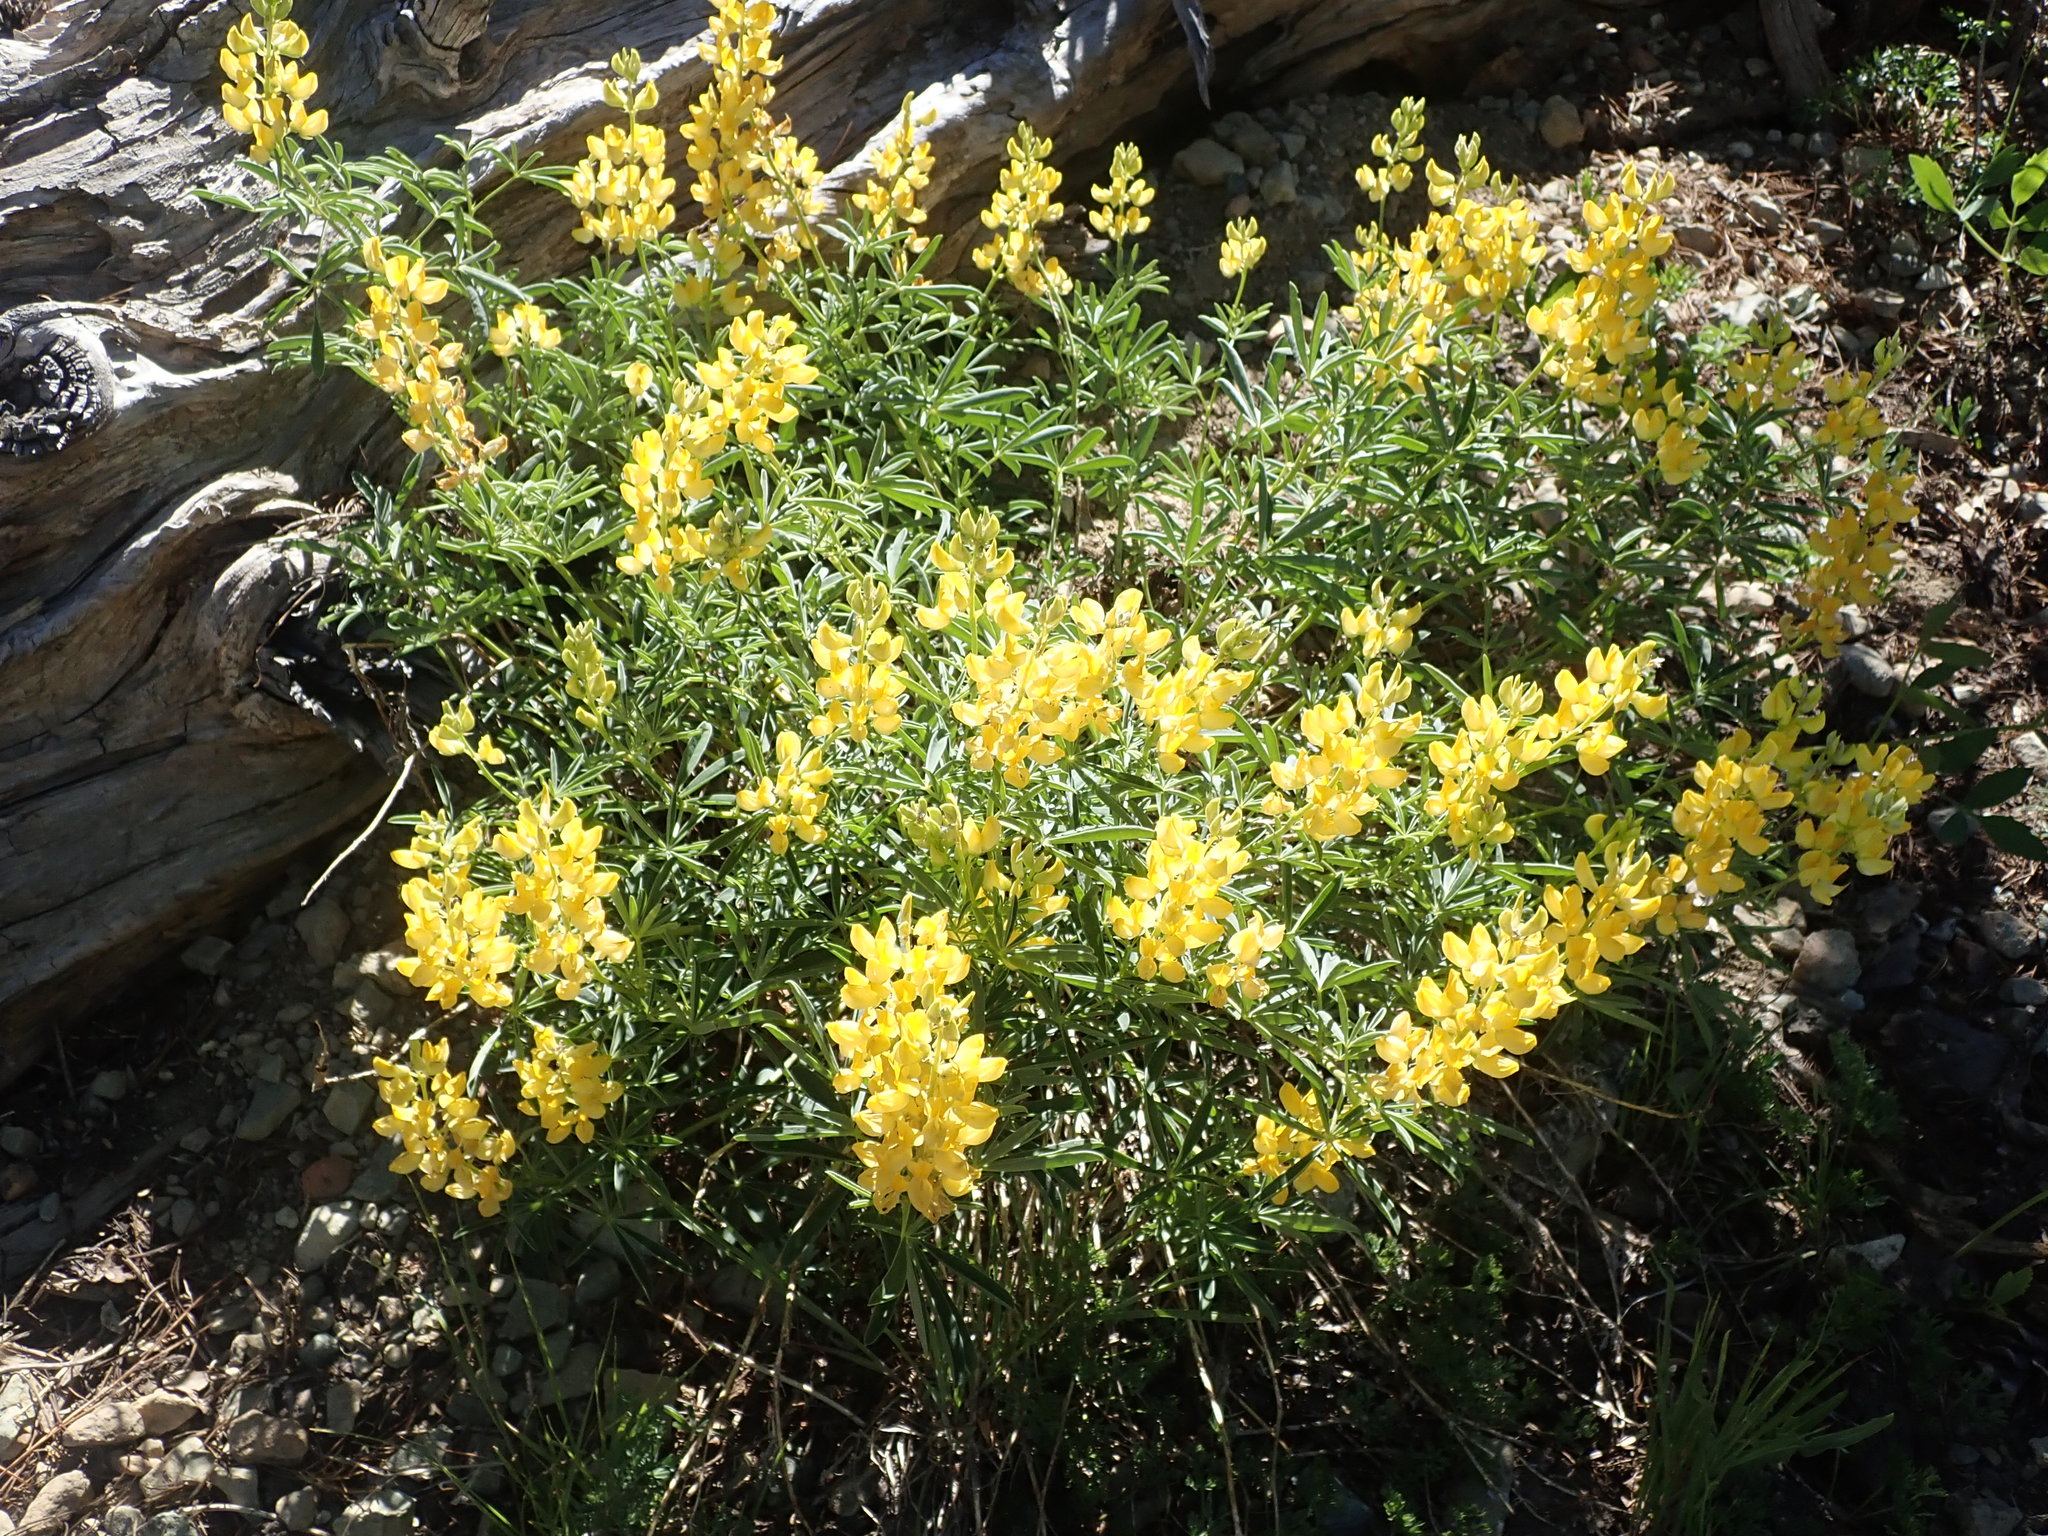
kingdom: Plantae
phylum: Tracheophyta
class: Magnoliopsida
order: Fabales
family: Fabaceae
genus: Lupinus
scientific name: Lupinus croceus
